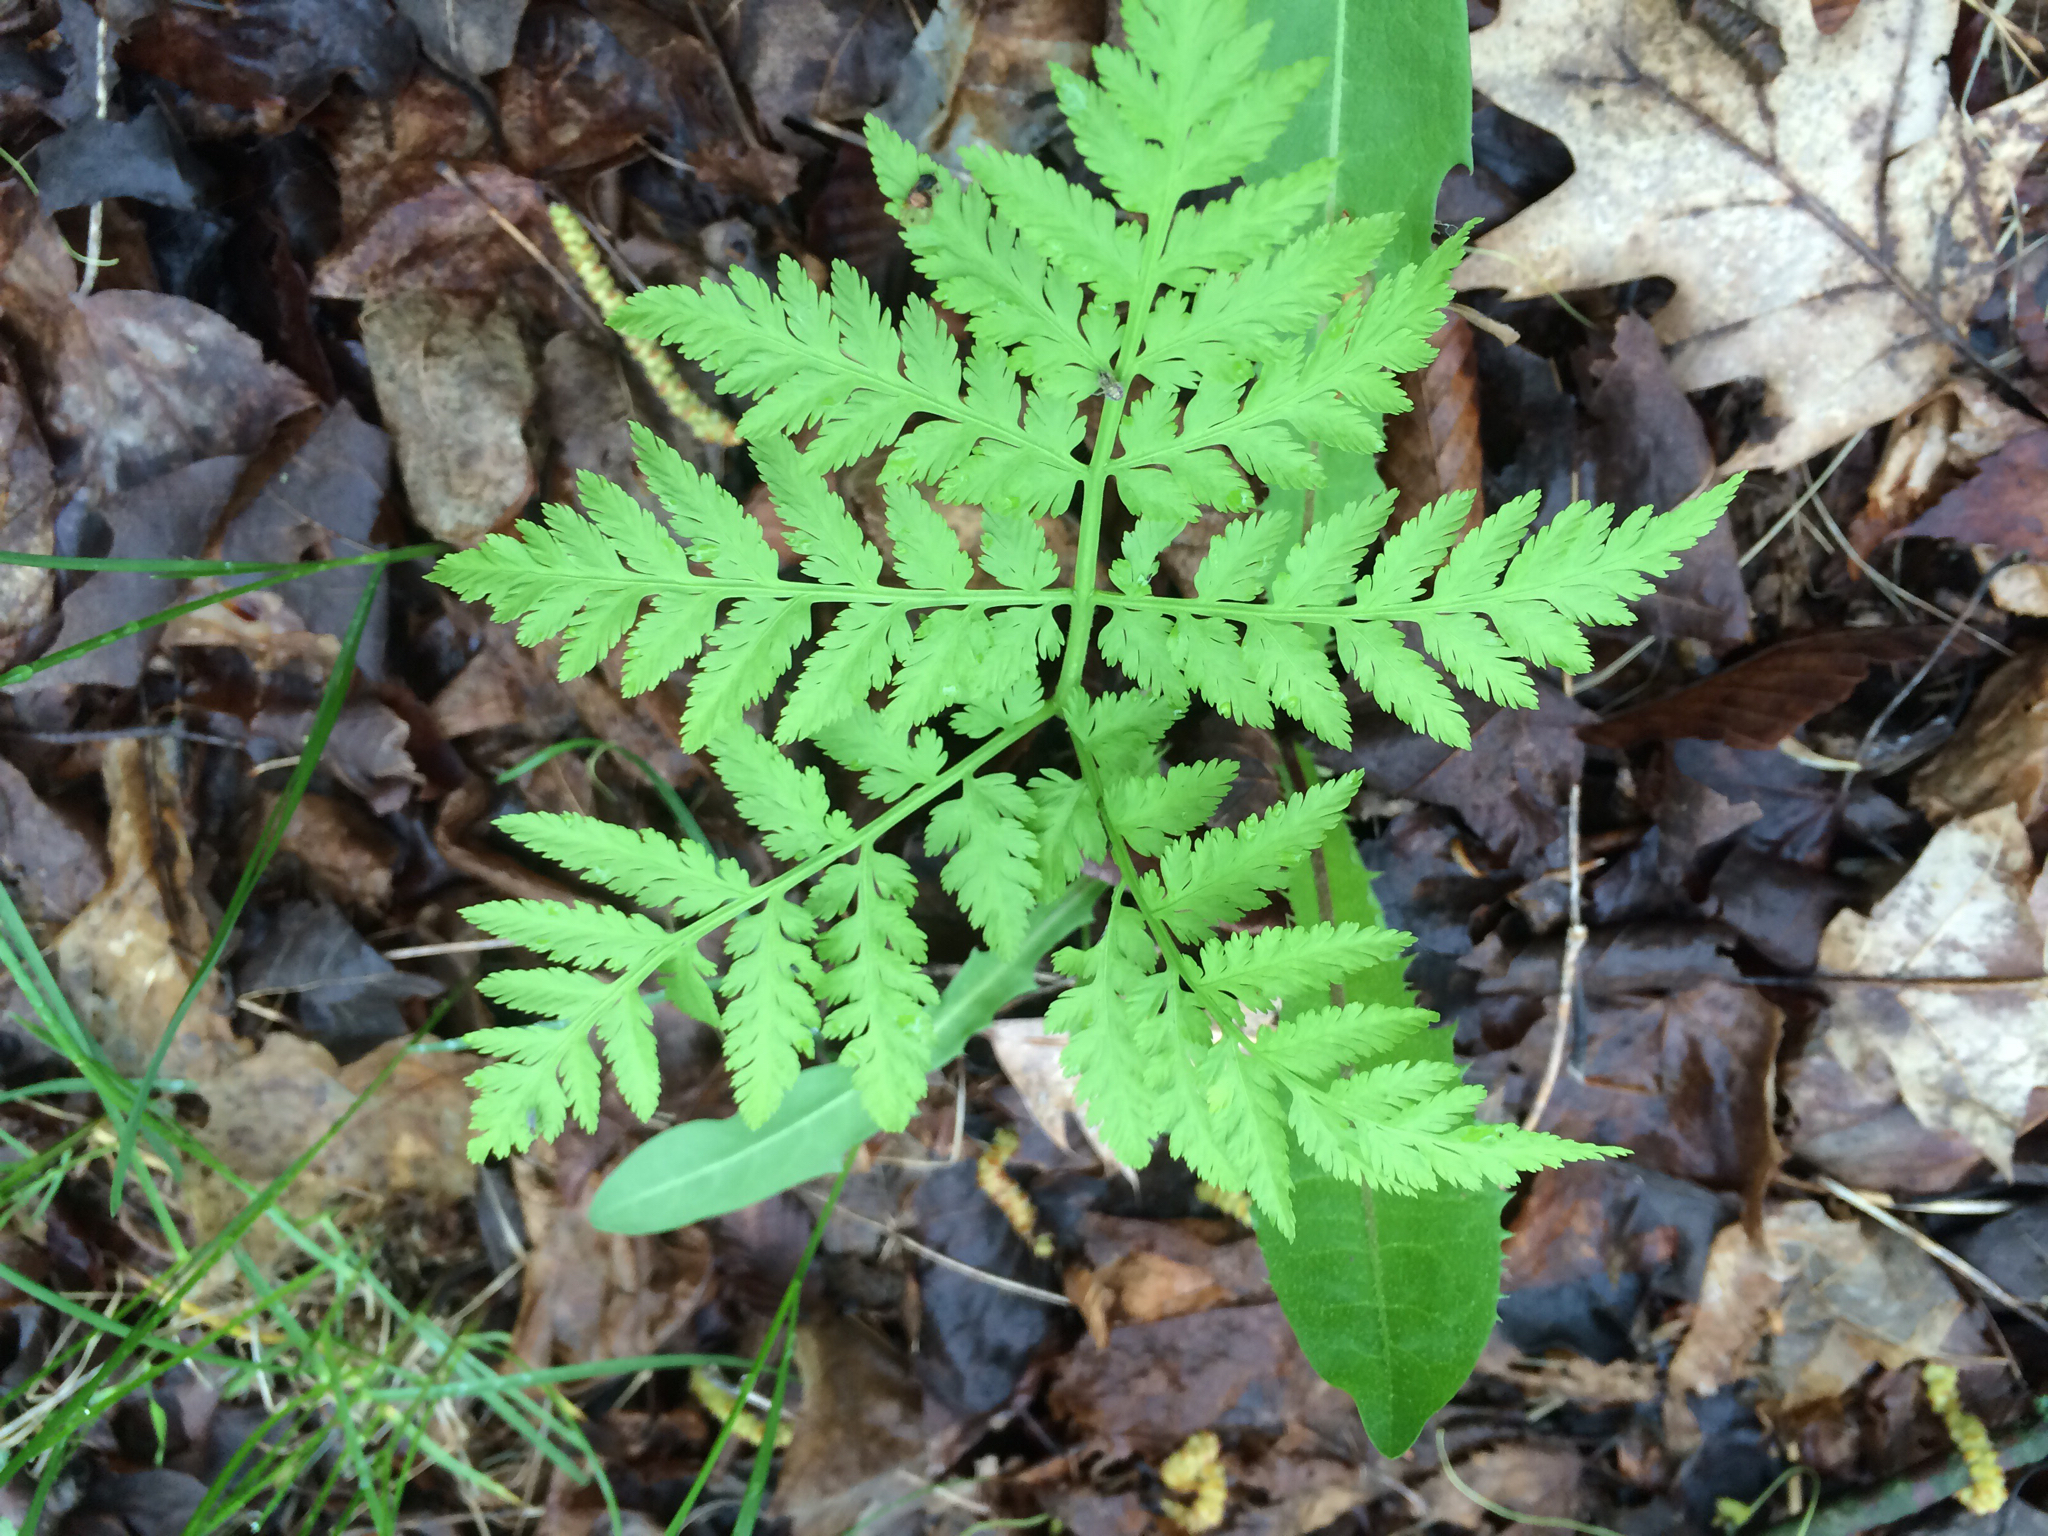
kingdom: Plantae
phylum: Tracheophyta
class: Polypodiopsida
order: Ophioglossales
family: Ophioglossaceae
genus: Botrypus
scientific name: Botrypus virginianus
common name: Common grapefern
